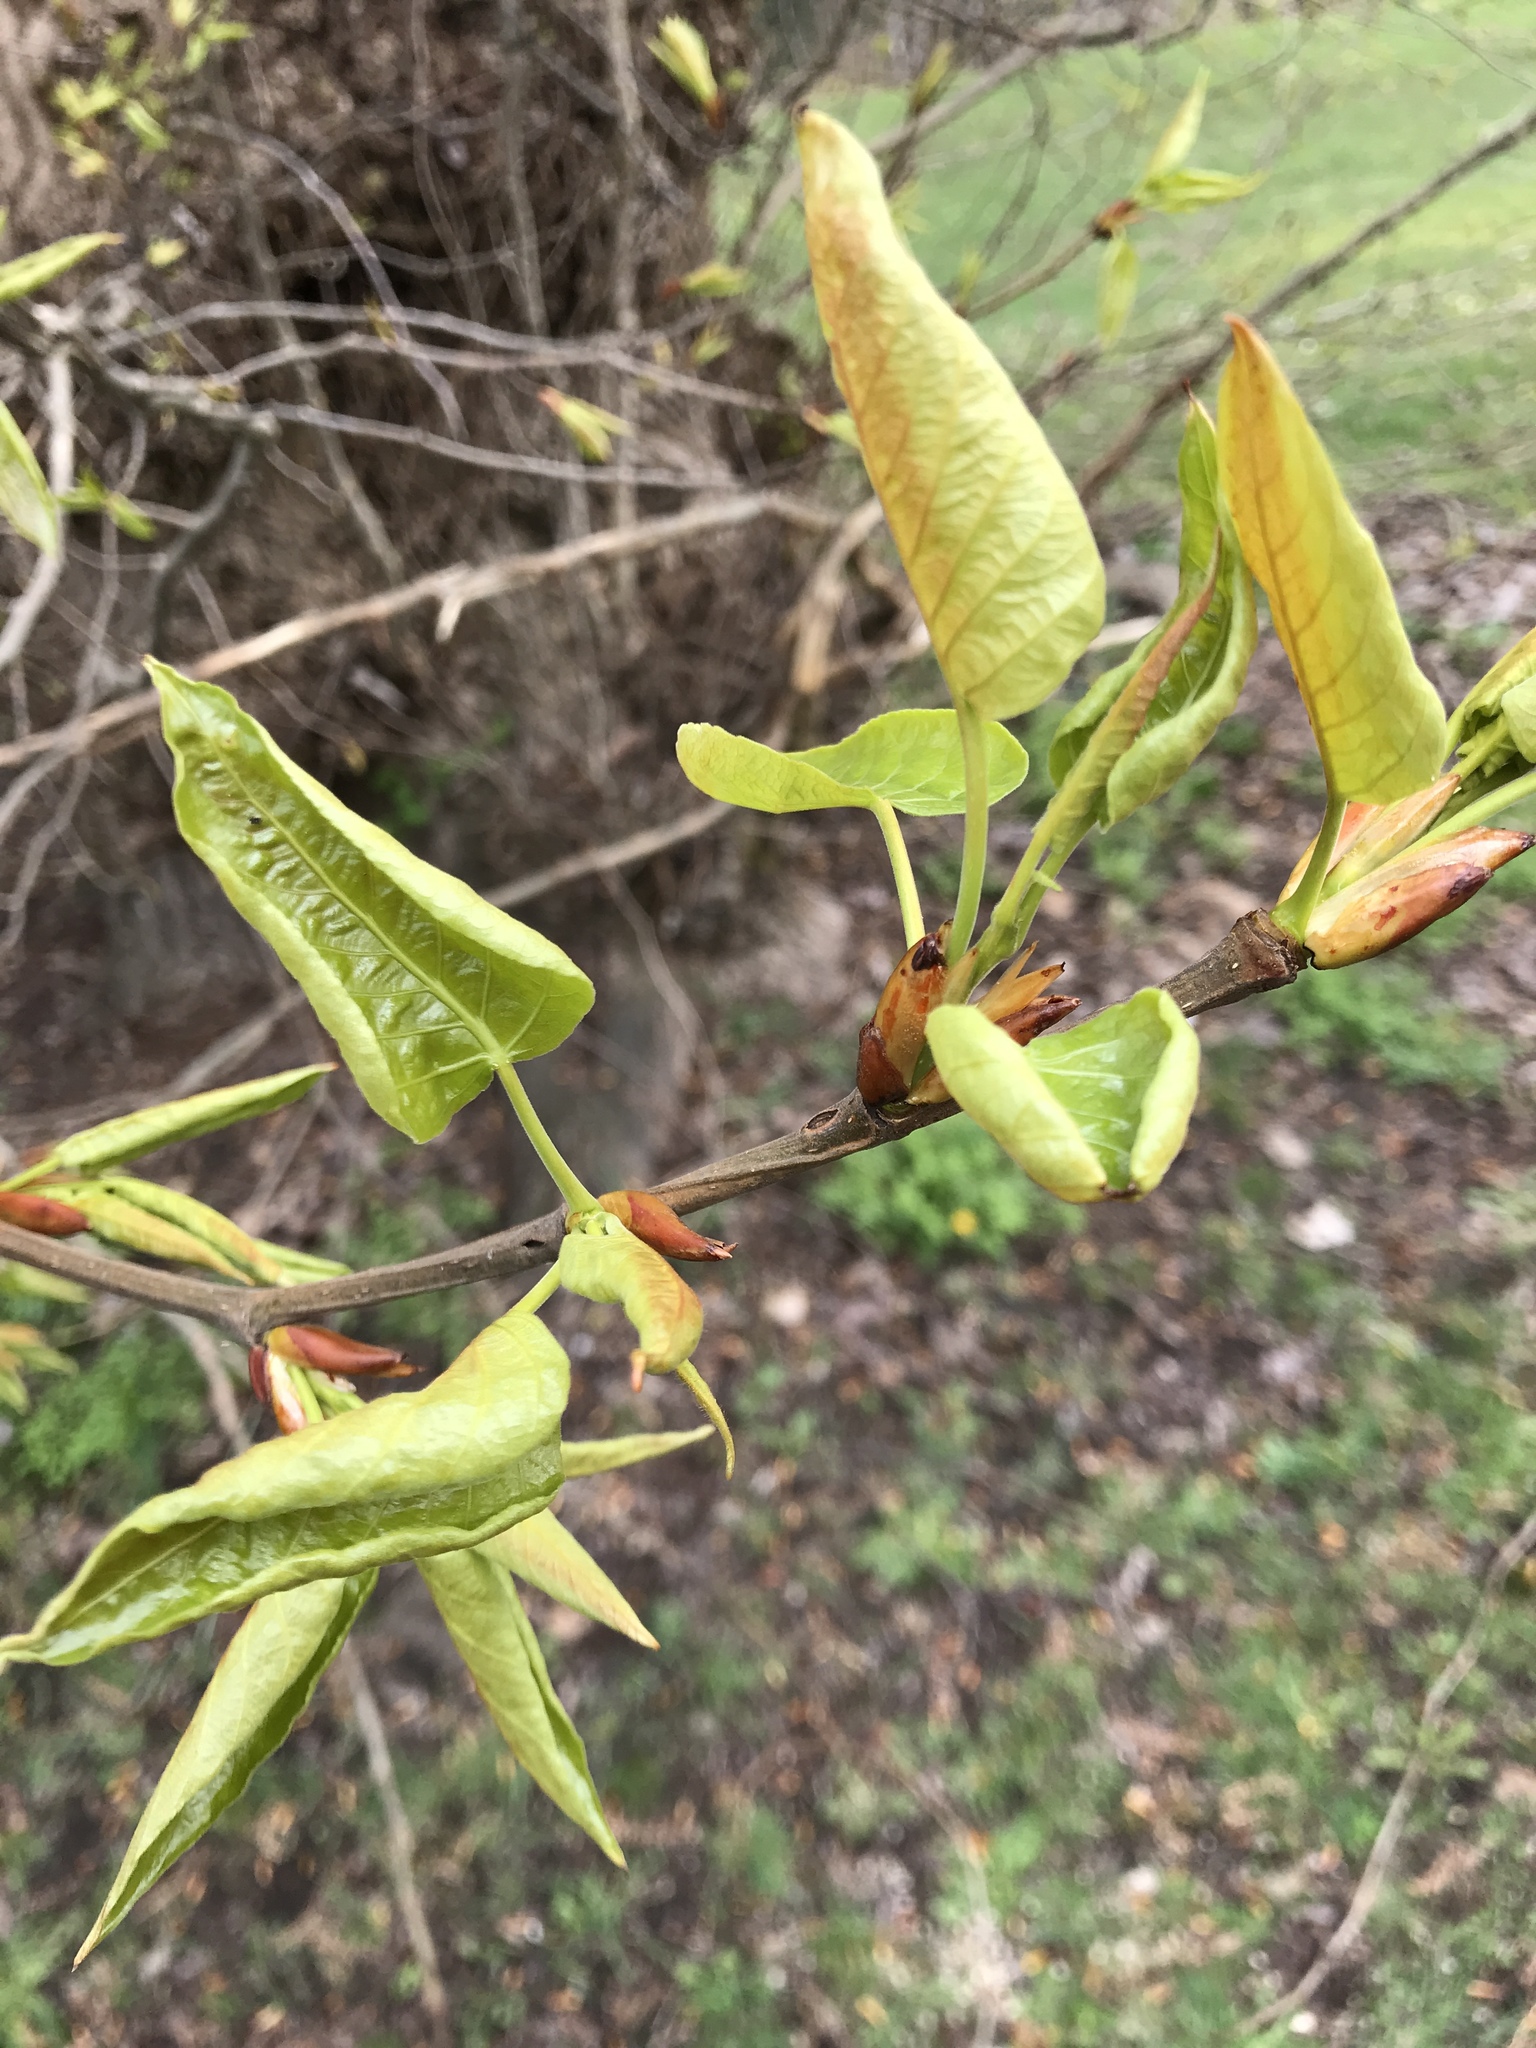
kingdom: Plantae
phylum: Tracheophyta
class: Magnoliopsida
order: Malpighiales
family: Salicaceae
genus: Populus
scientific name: Populus trichocarpa
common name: Black cottonwood
